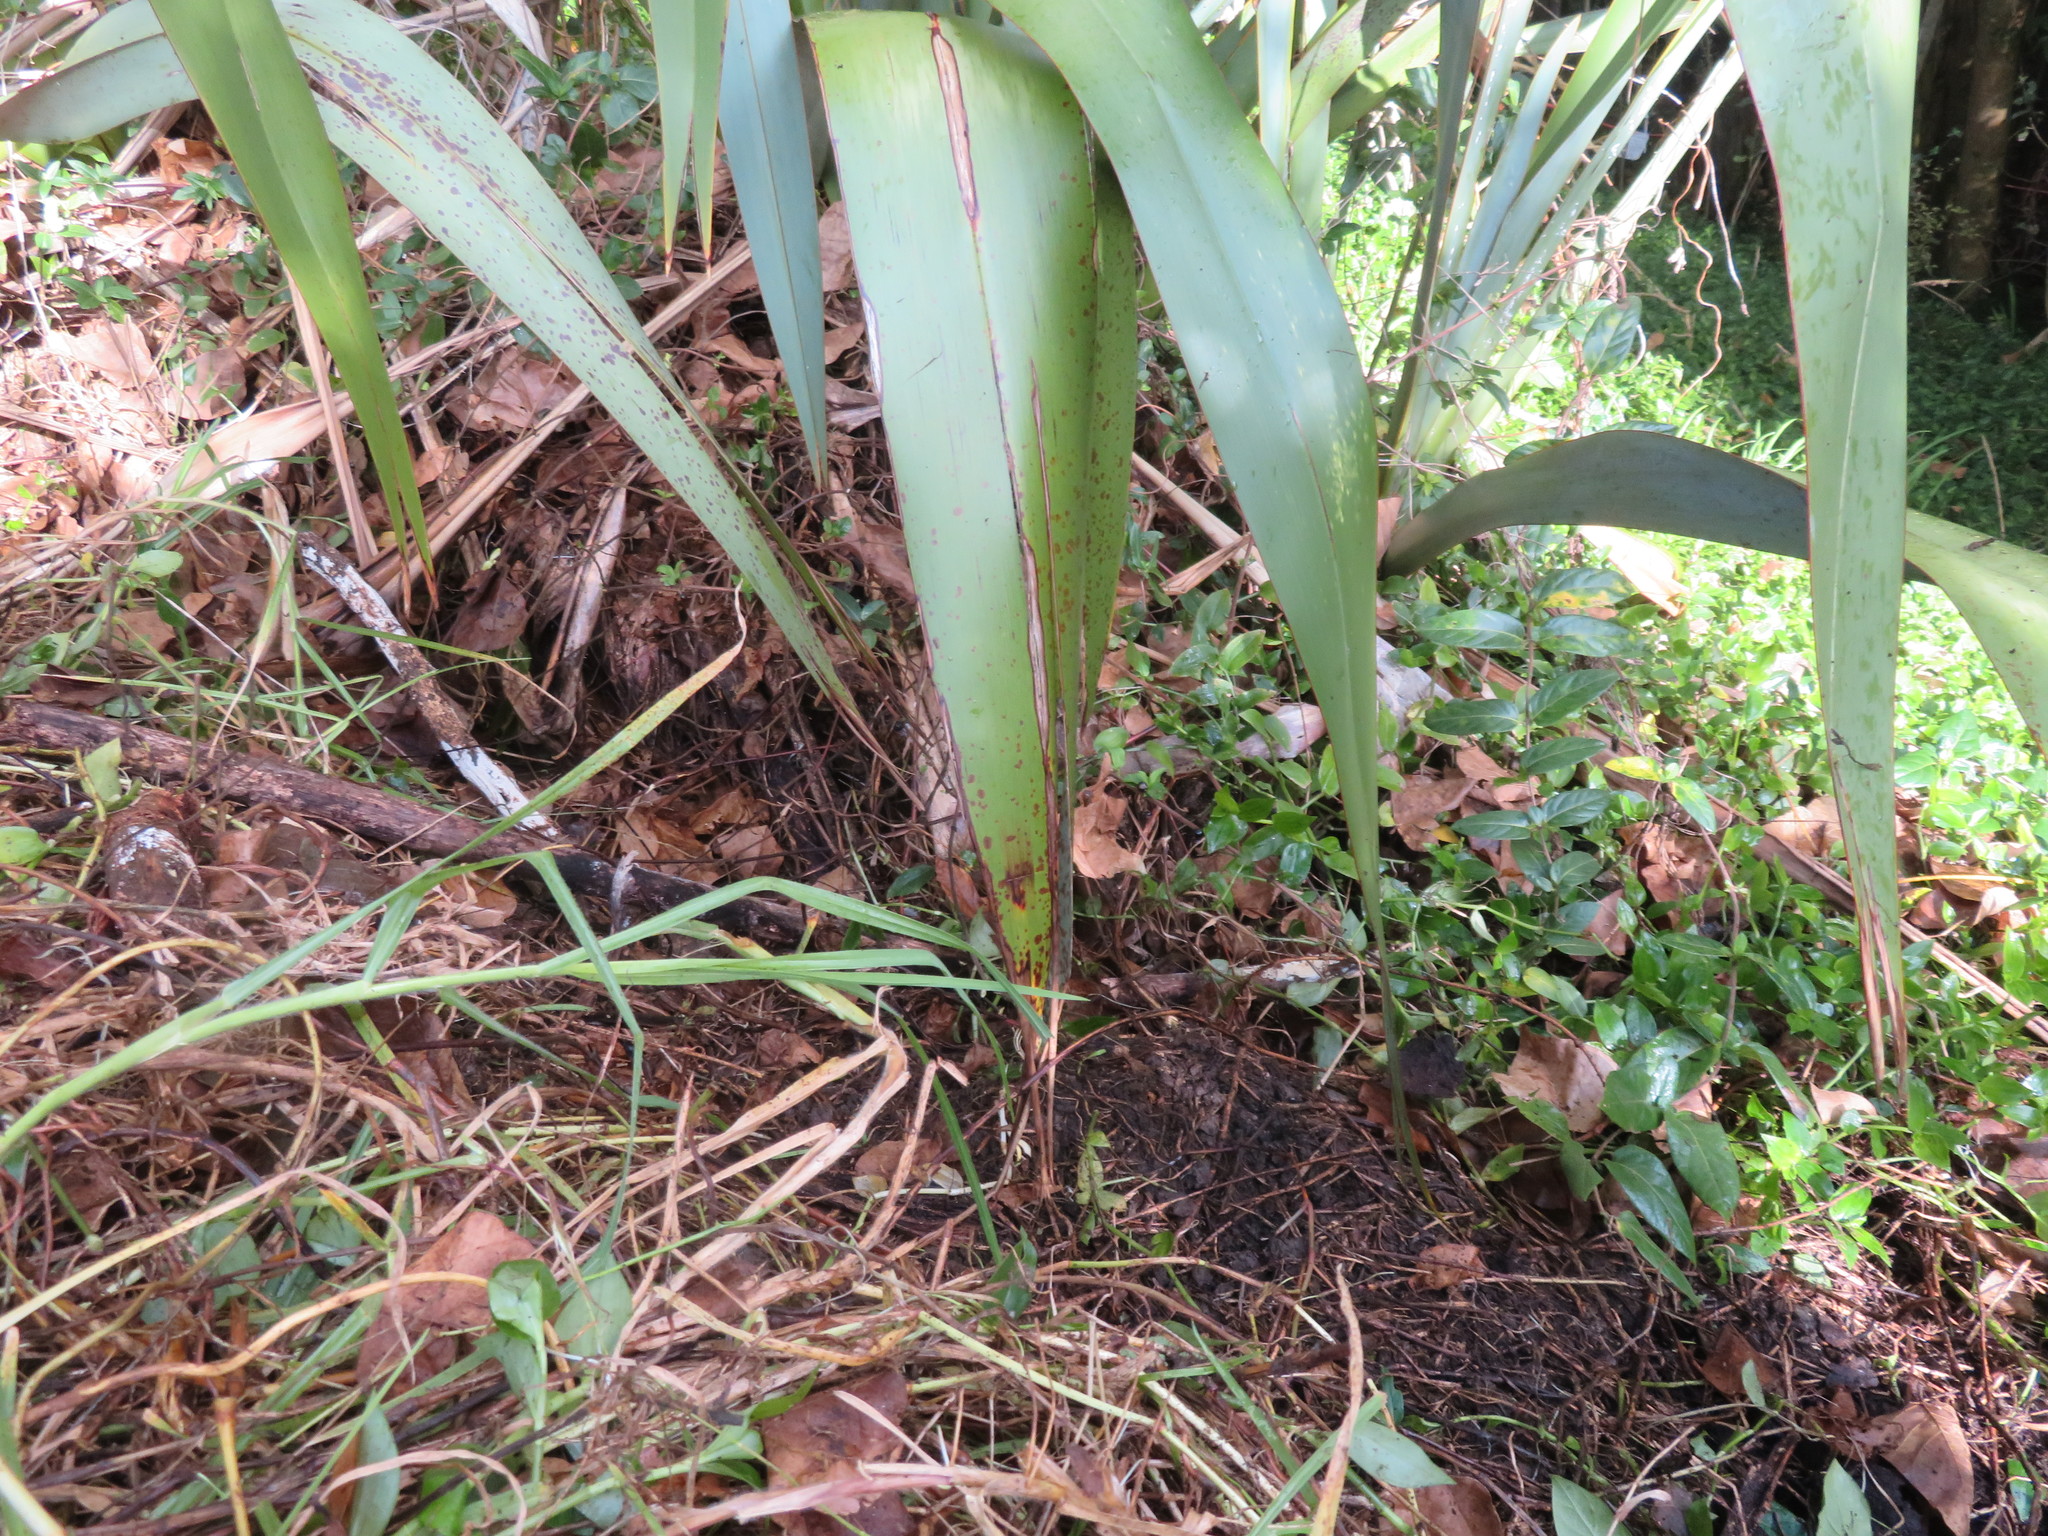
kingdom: Plantae
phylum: Tracheophyta
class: Liliopsida
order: Poales
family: Poaceae
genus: Cenchrus
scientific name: Cenchrus clandestinus
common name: Kikuyugrass
